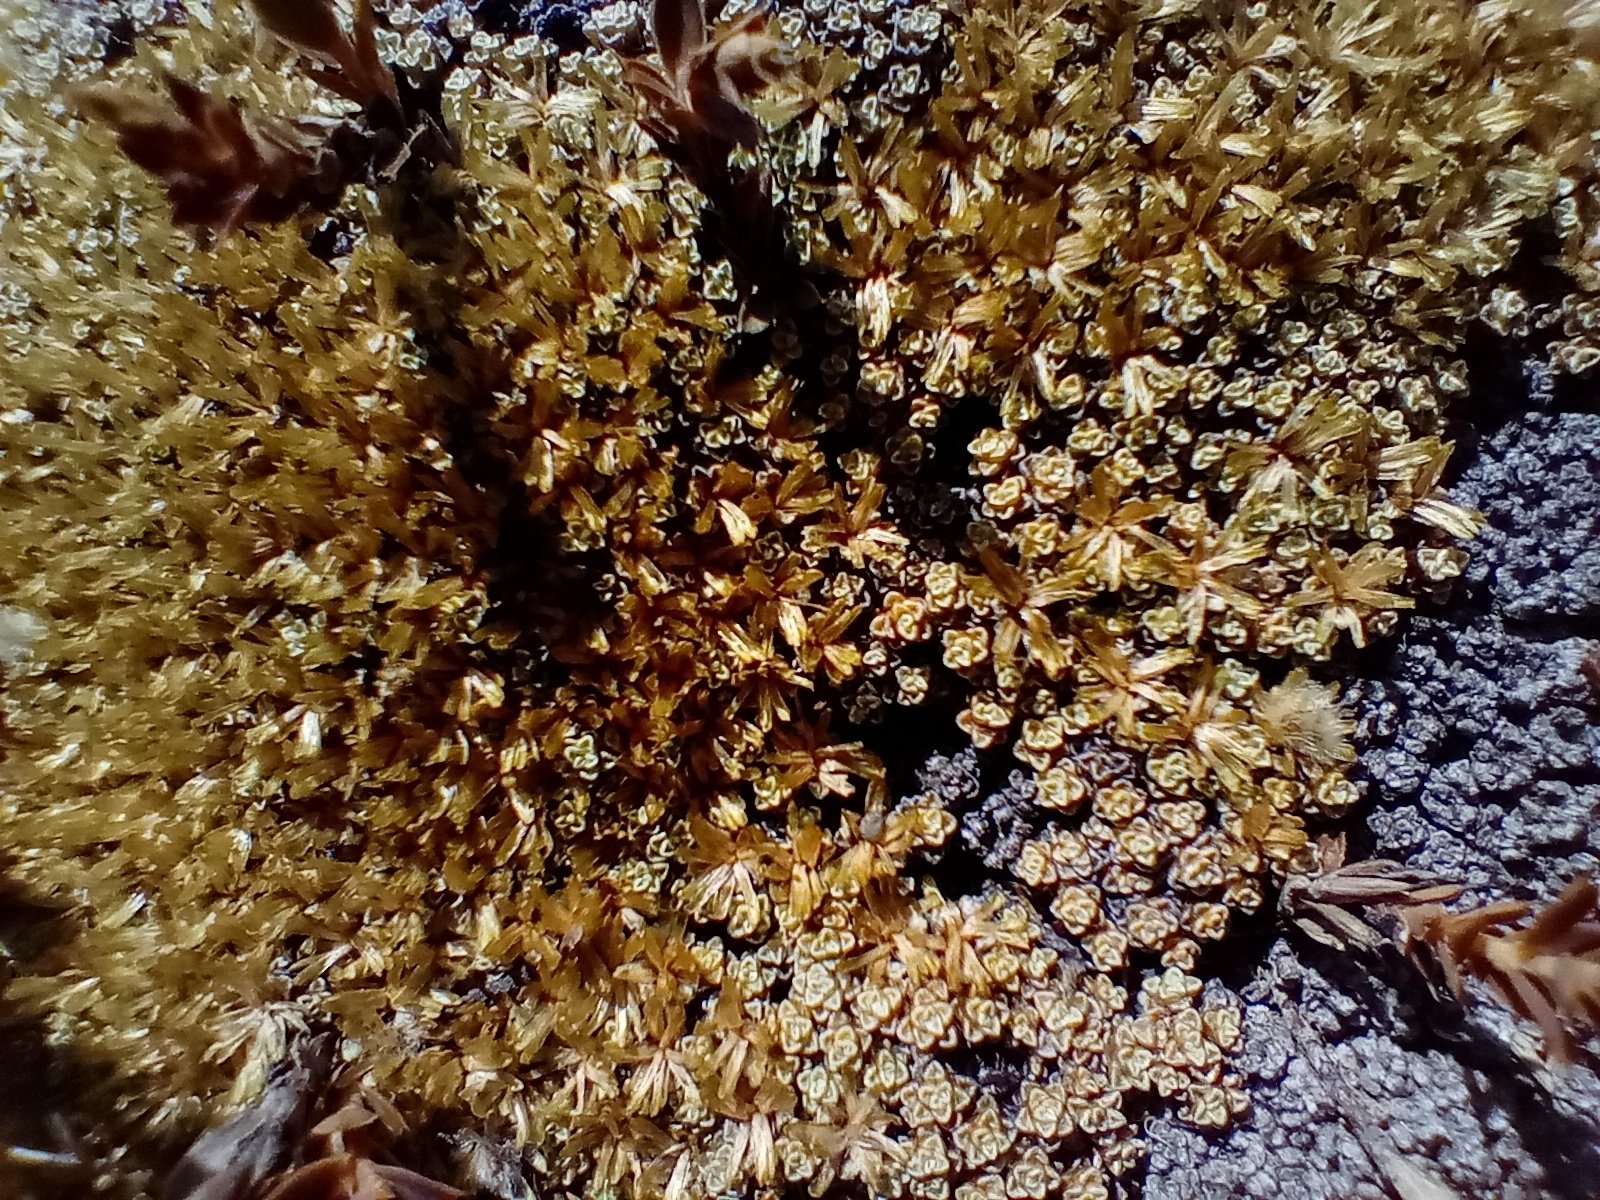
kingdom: Plantae
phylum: Tracheophyta
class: Magnoliopsida
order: Asterales
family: Asteraceae
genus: Raoulia
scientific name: Raoulia australis
